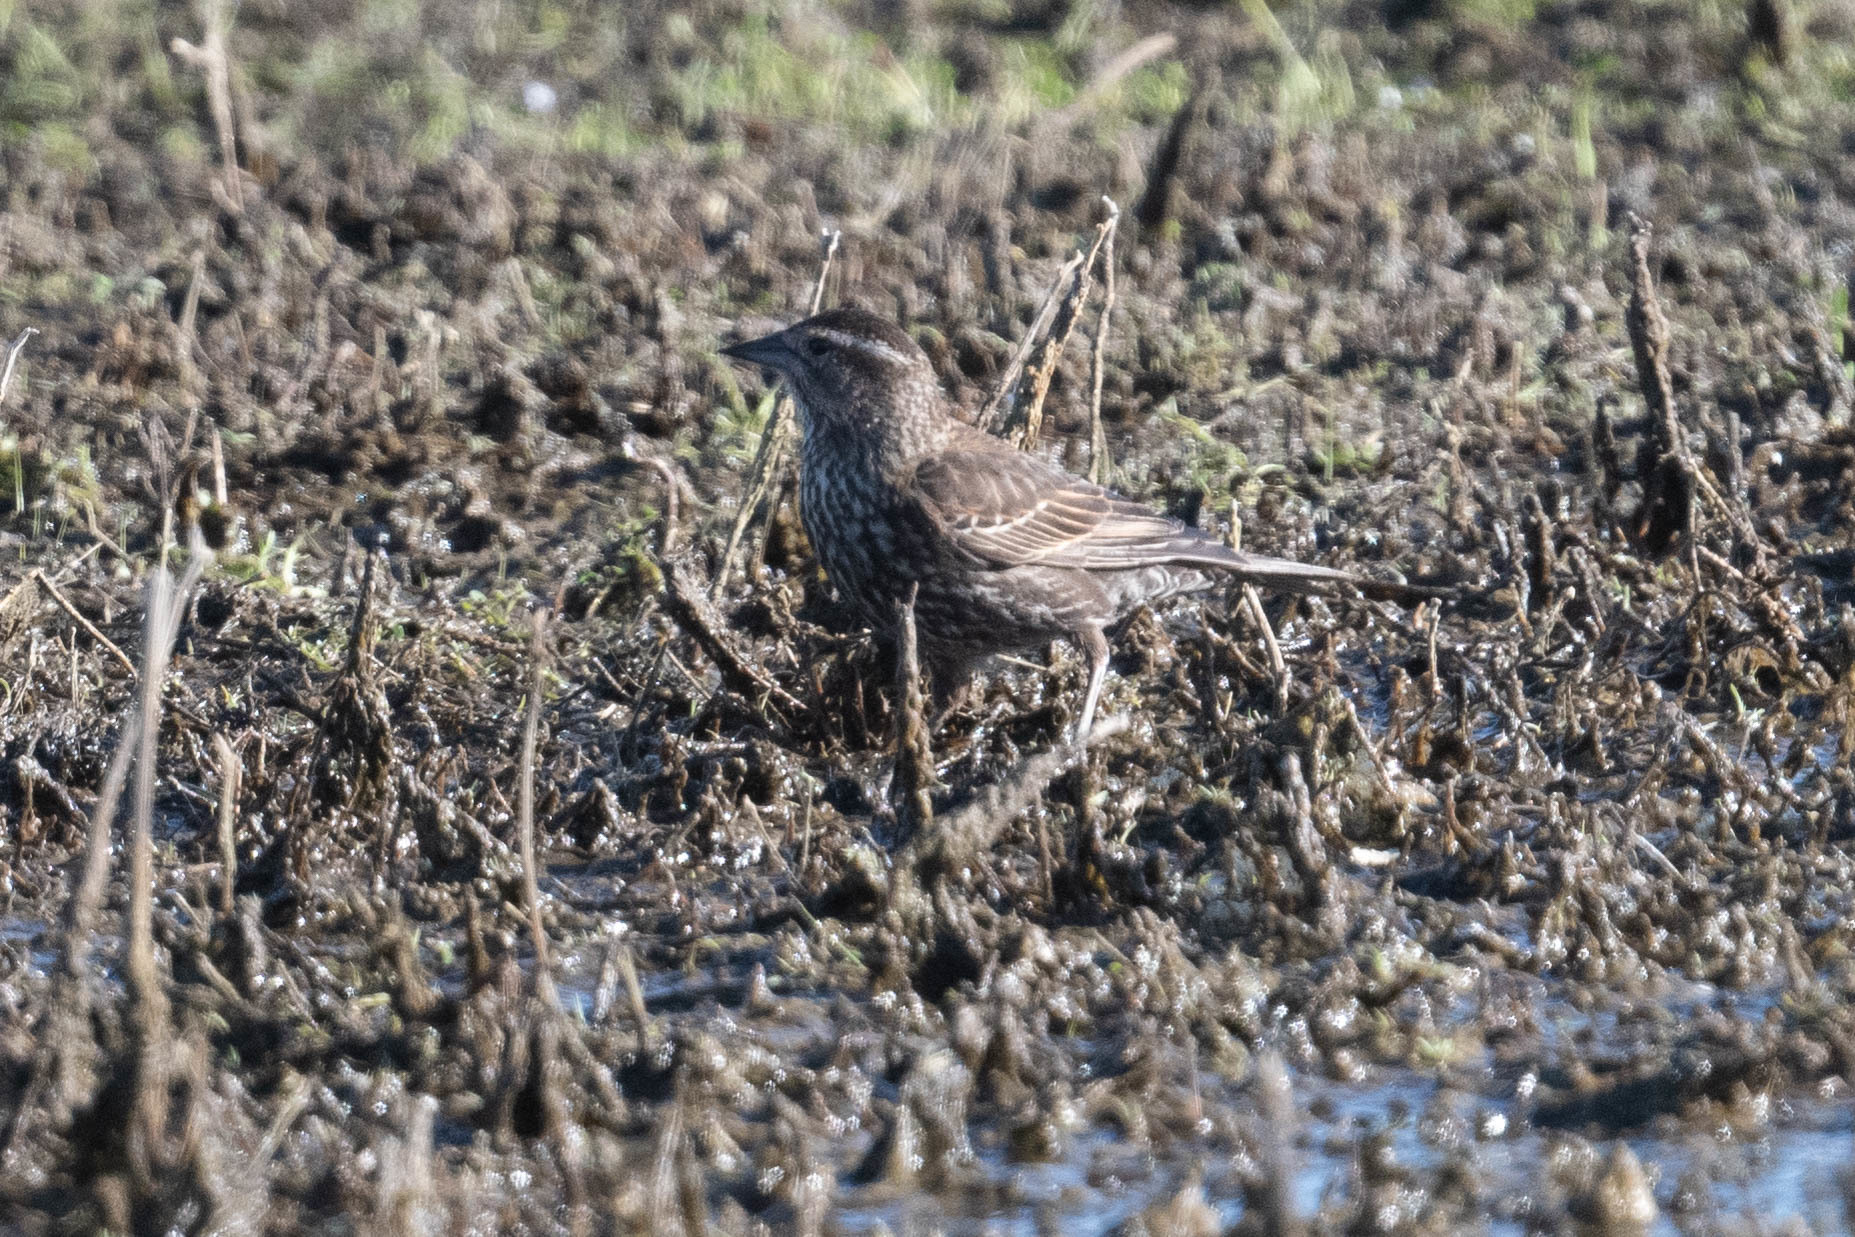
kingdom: Animalia
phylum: Chordata
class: Aves
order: Passeriformes
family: Icteridae
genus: Agelaius
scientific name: Agelaius phoeniceus
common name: Red-winged blackbird
